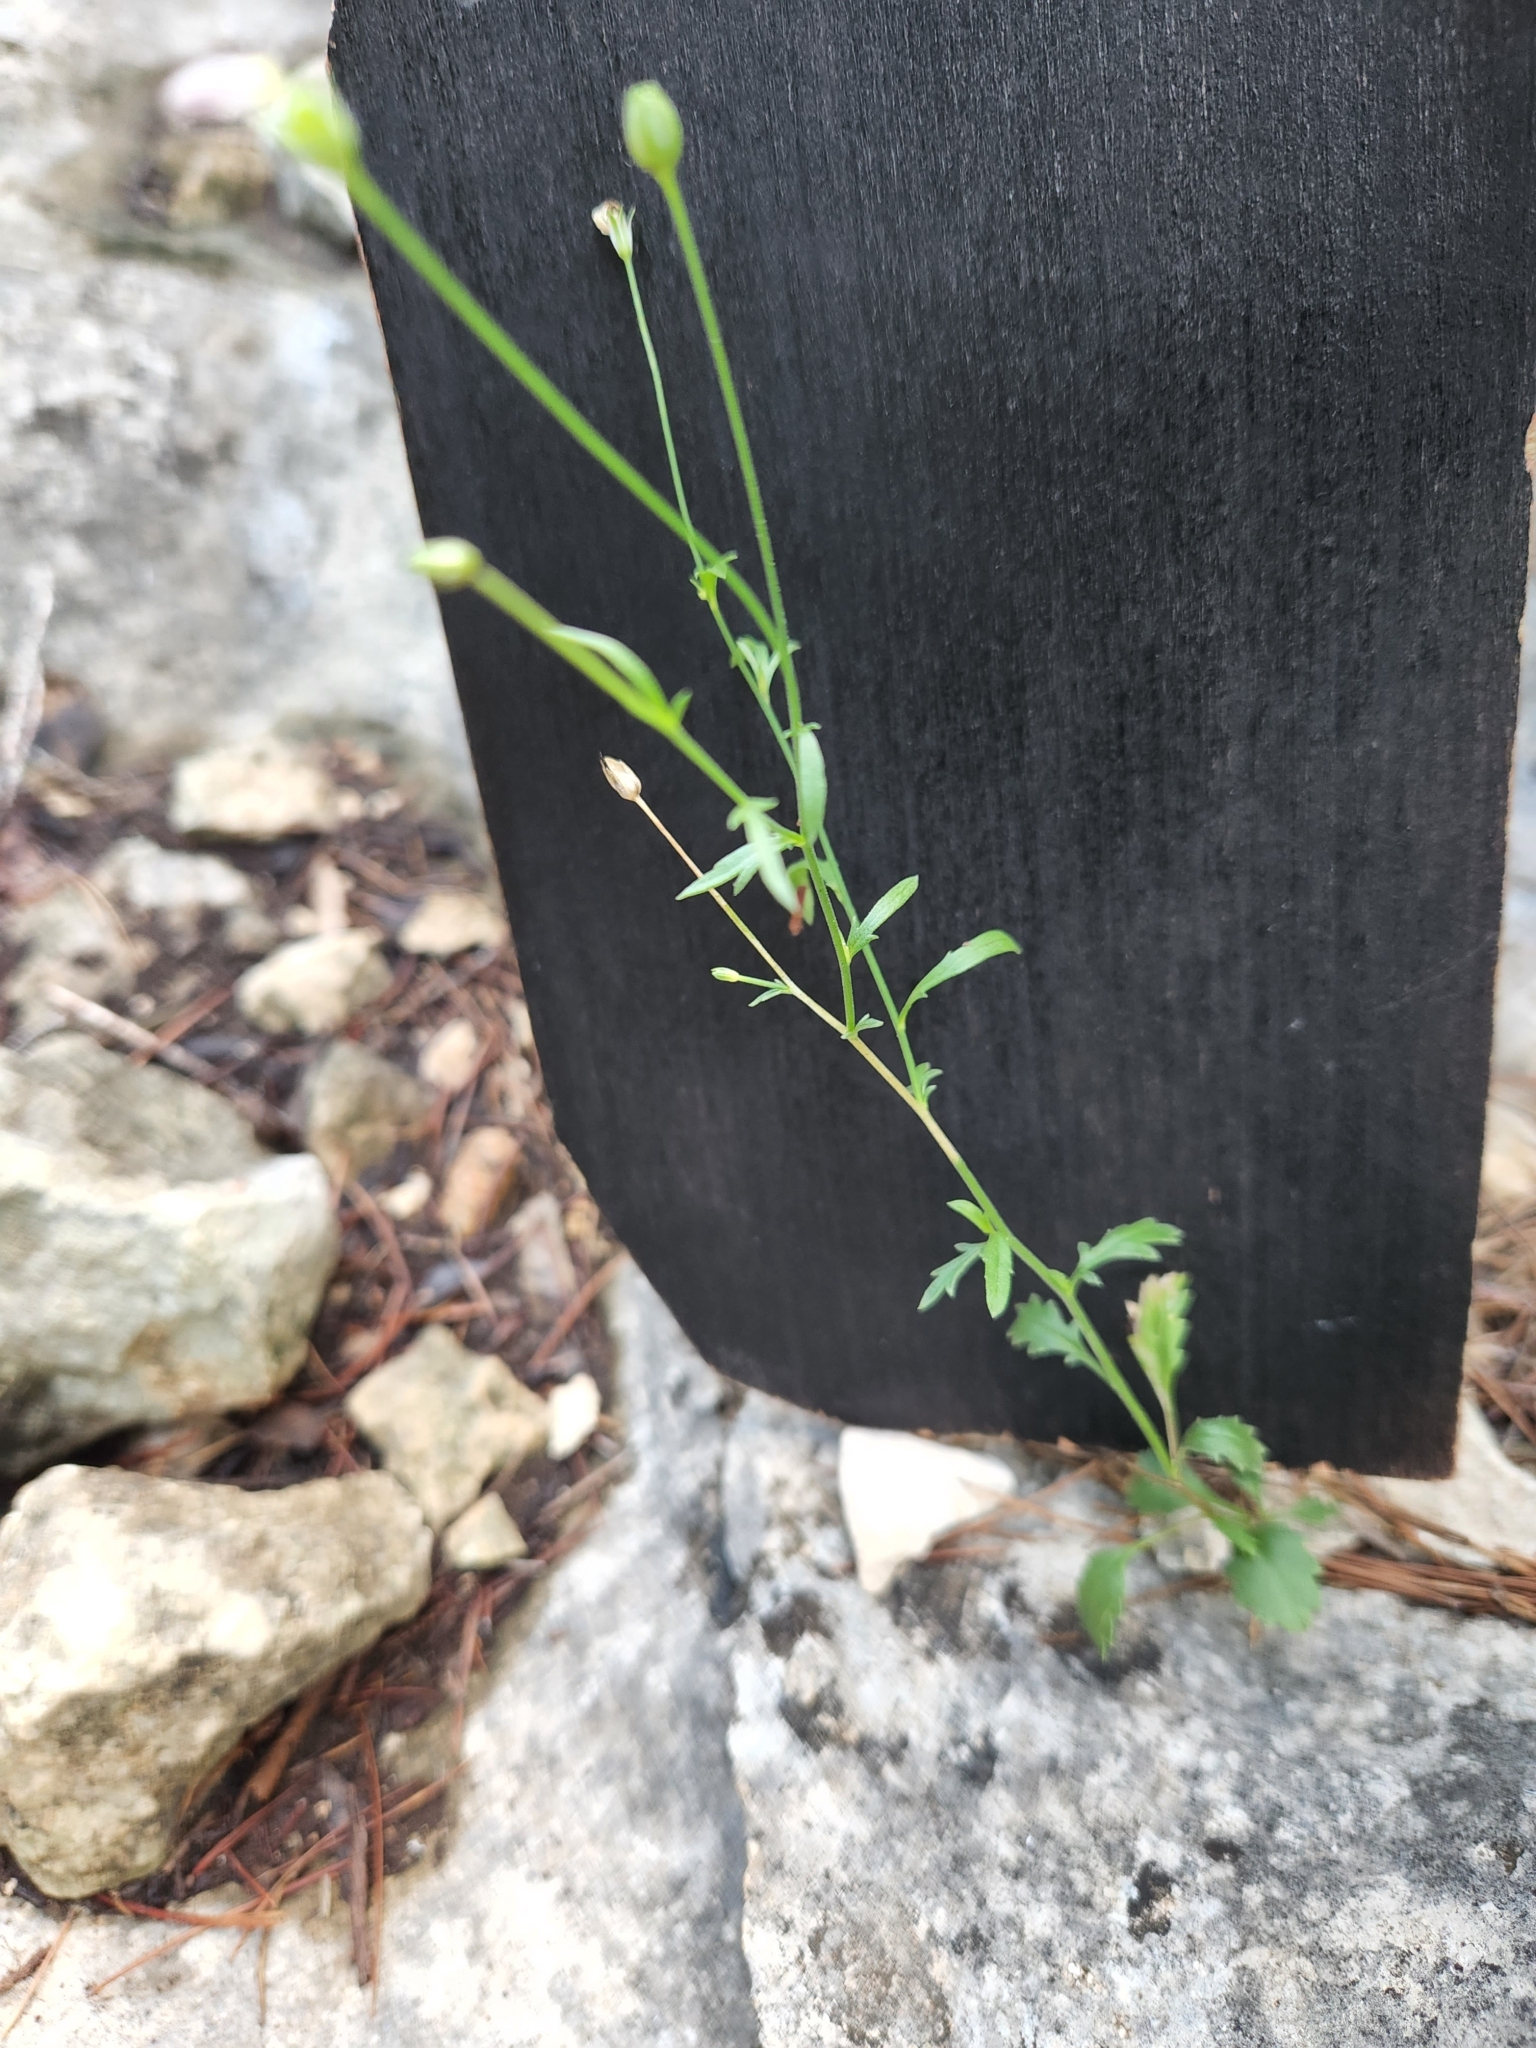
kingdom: Plantae
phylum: Tracheophyta
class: Magnoliopsida
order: Ericales
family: Polemoniaceae
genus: Giliastrum
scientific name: Giliastrum incisum
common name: Splitleaf gilia
